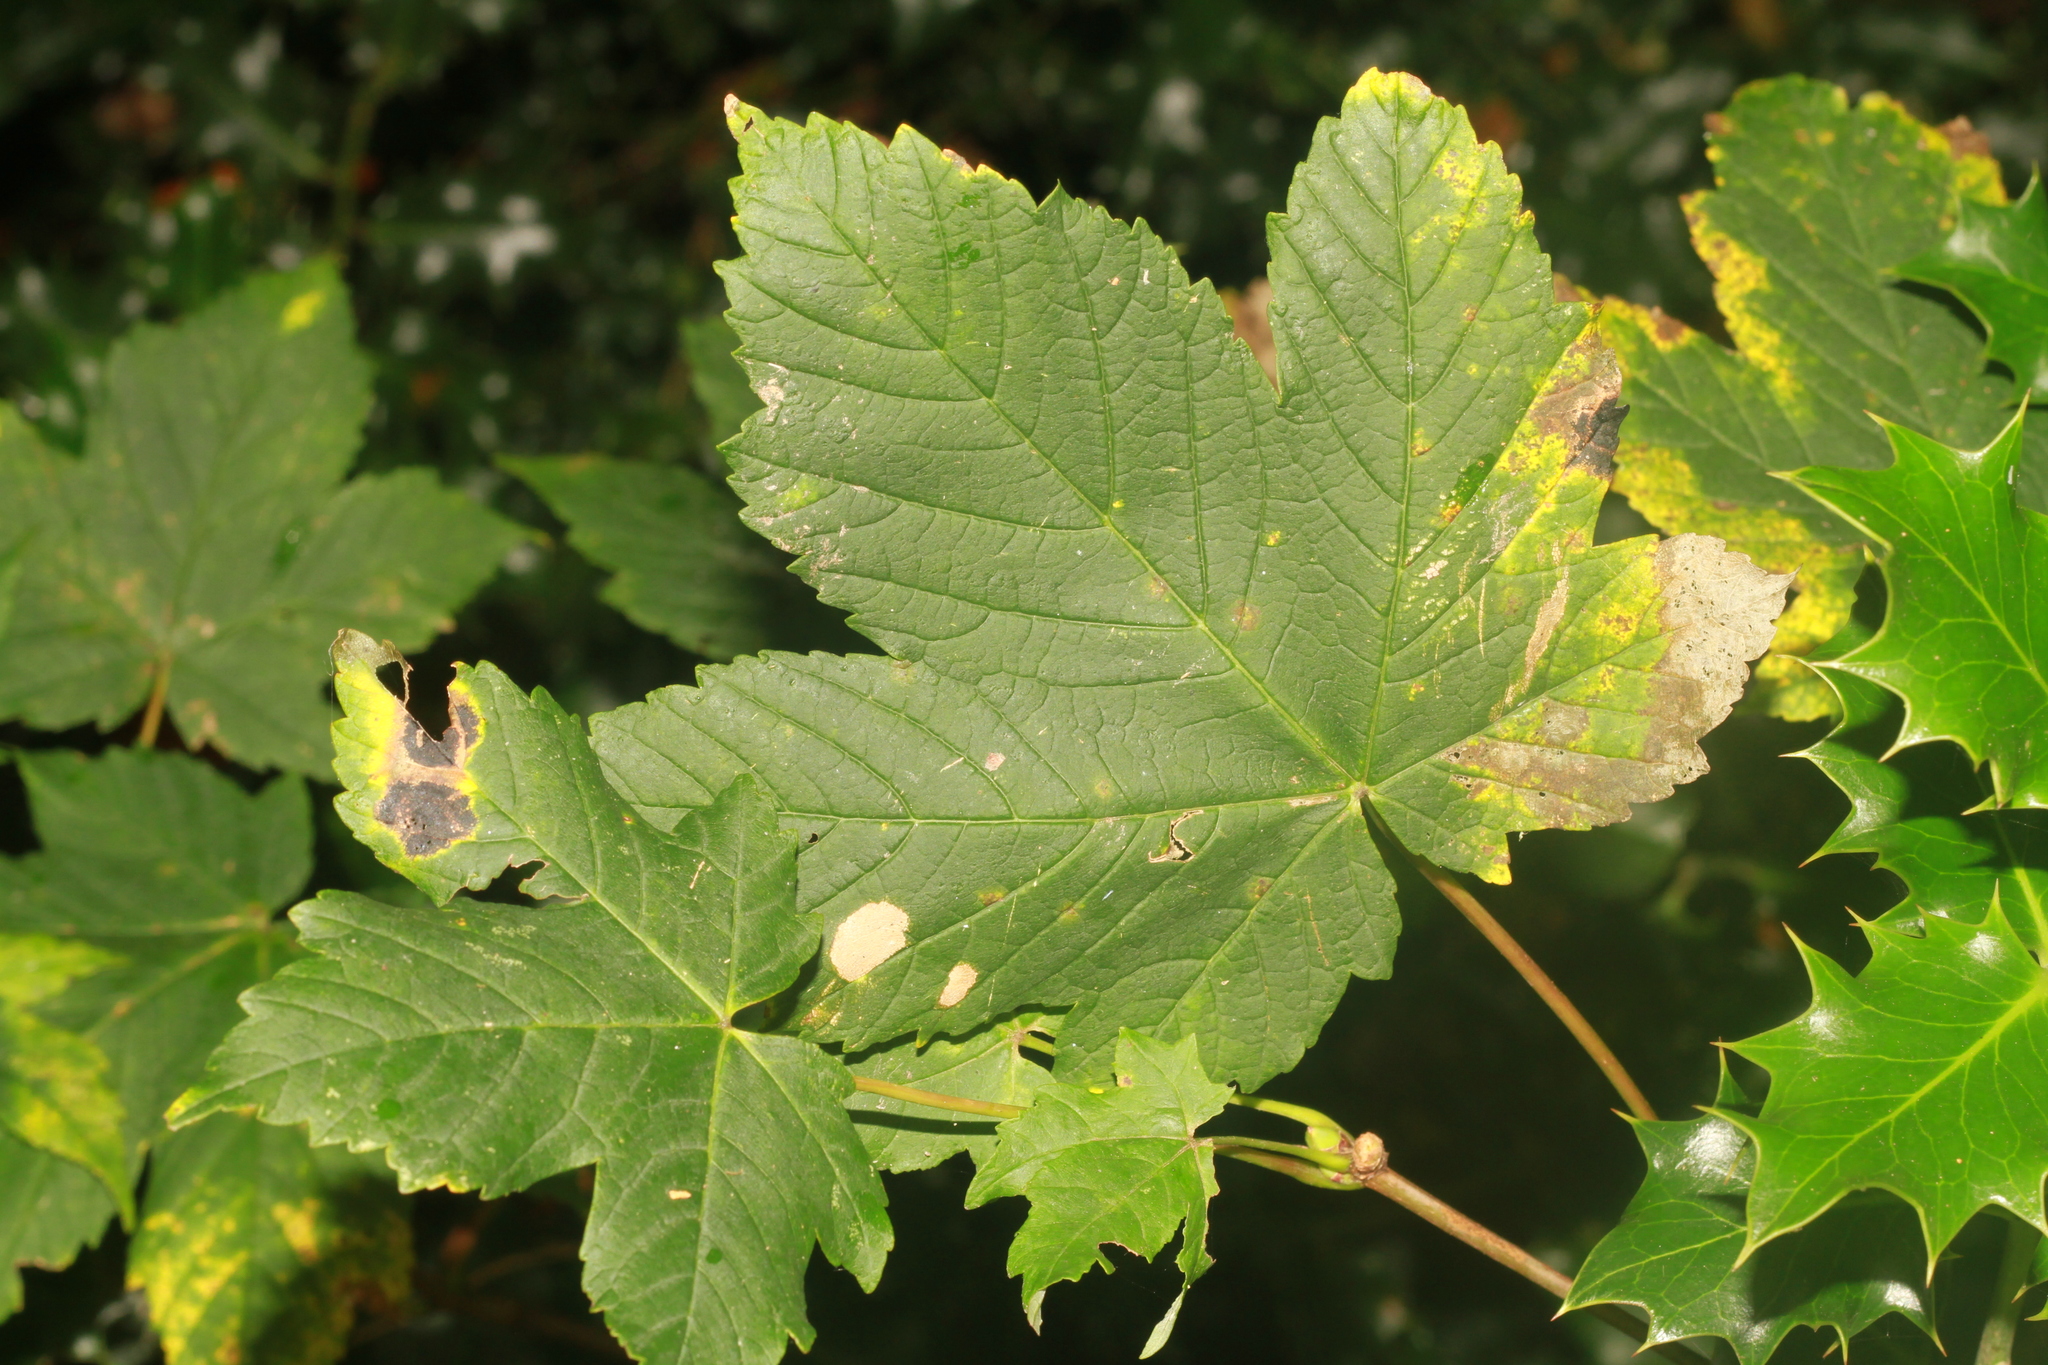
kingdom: Plantae
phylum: Tracheophyta
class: Magnoliopsida
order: Sapindales
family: Sapindaceae
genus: Acer
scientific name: Acer pseudoplatanus
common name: Sycamore
